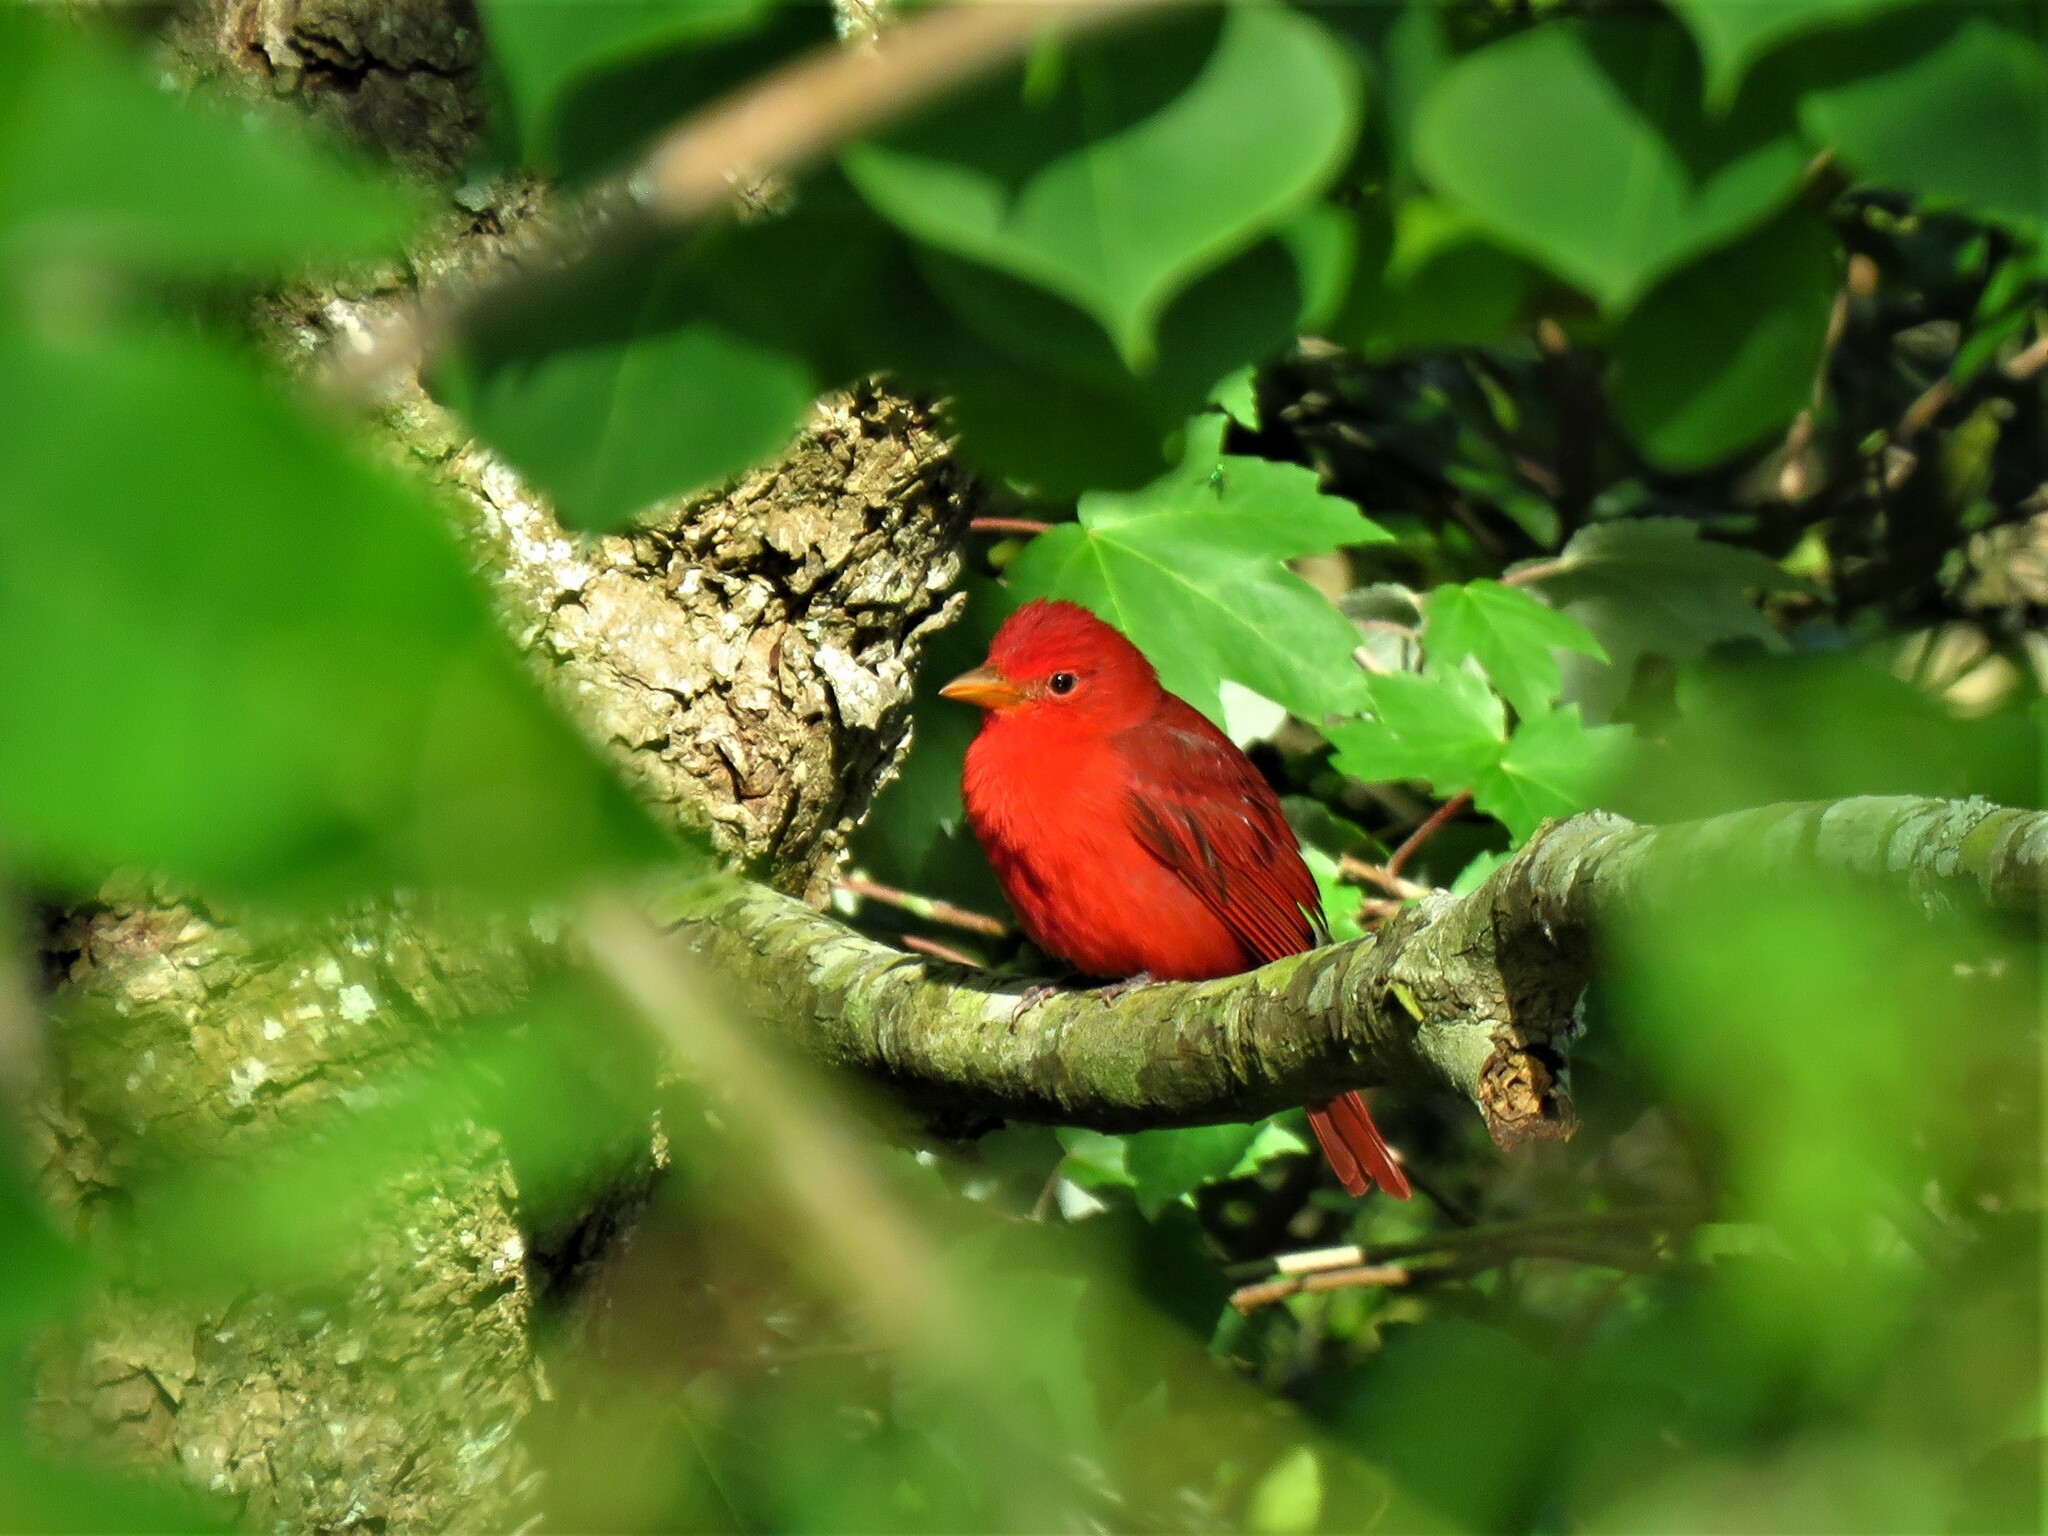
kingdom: Animalia
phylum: Chordata
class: Aves
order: Passeriformes
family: Cardinalidae
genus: Piranga
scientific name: Piranga rubra
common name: Summer tanager
